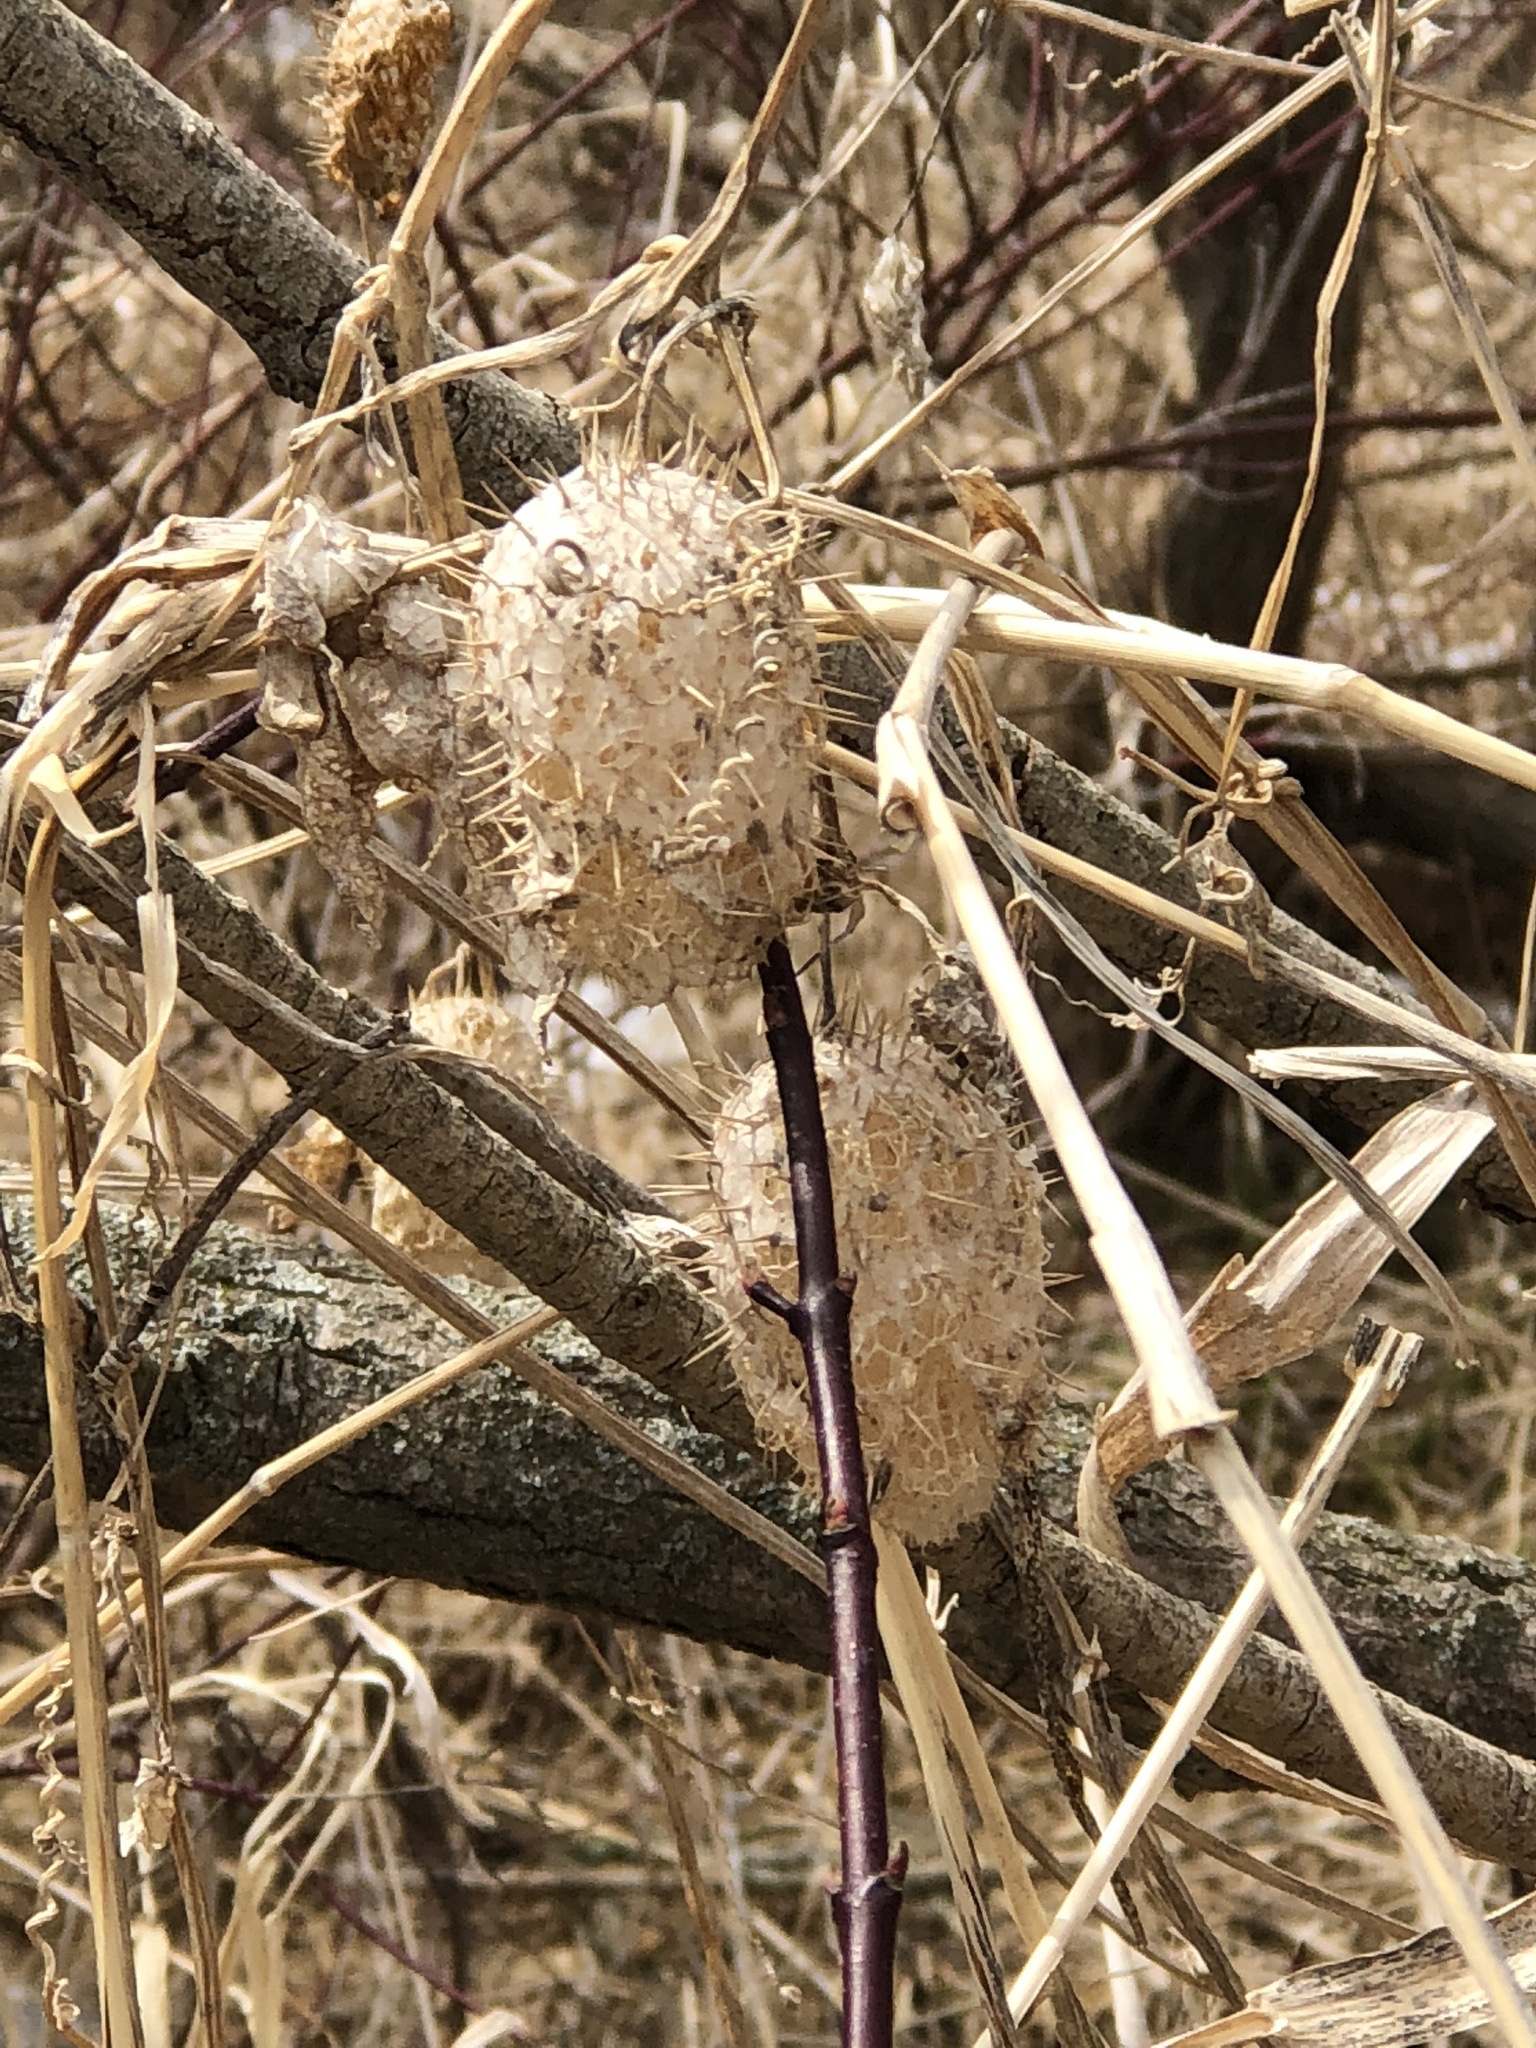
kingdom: Plantae
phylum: Tracheophyta
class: Magnoliopsida
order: Cucurbitales
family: Cucurbitaceae
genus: Echinocystis
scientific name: Echinocystis lobata
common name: Wild cucumber
